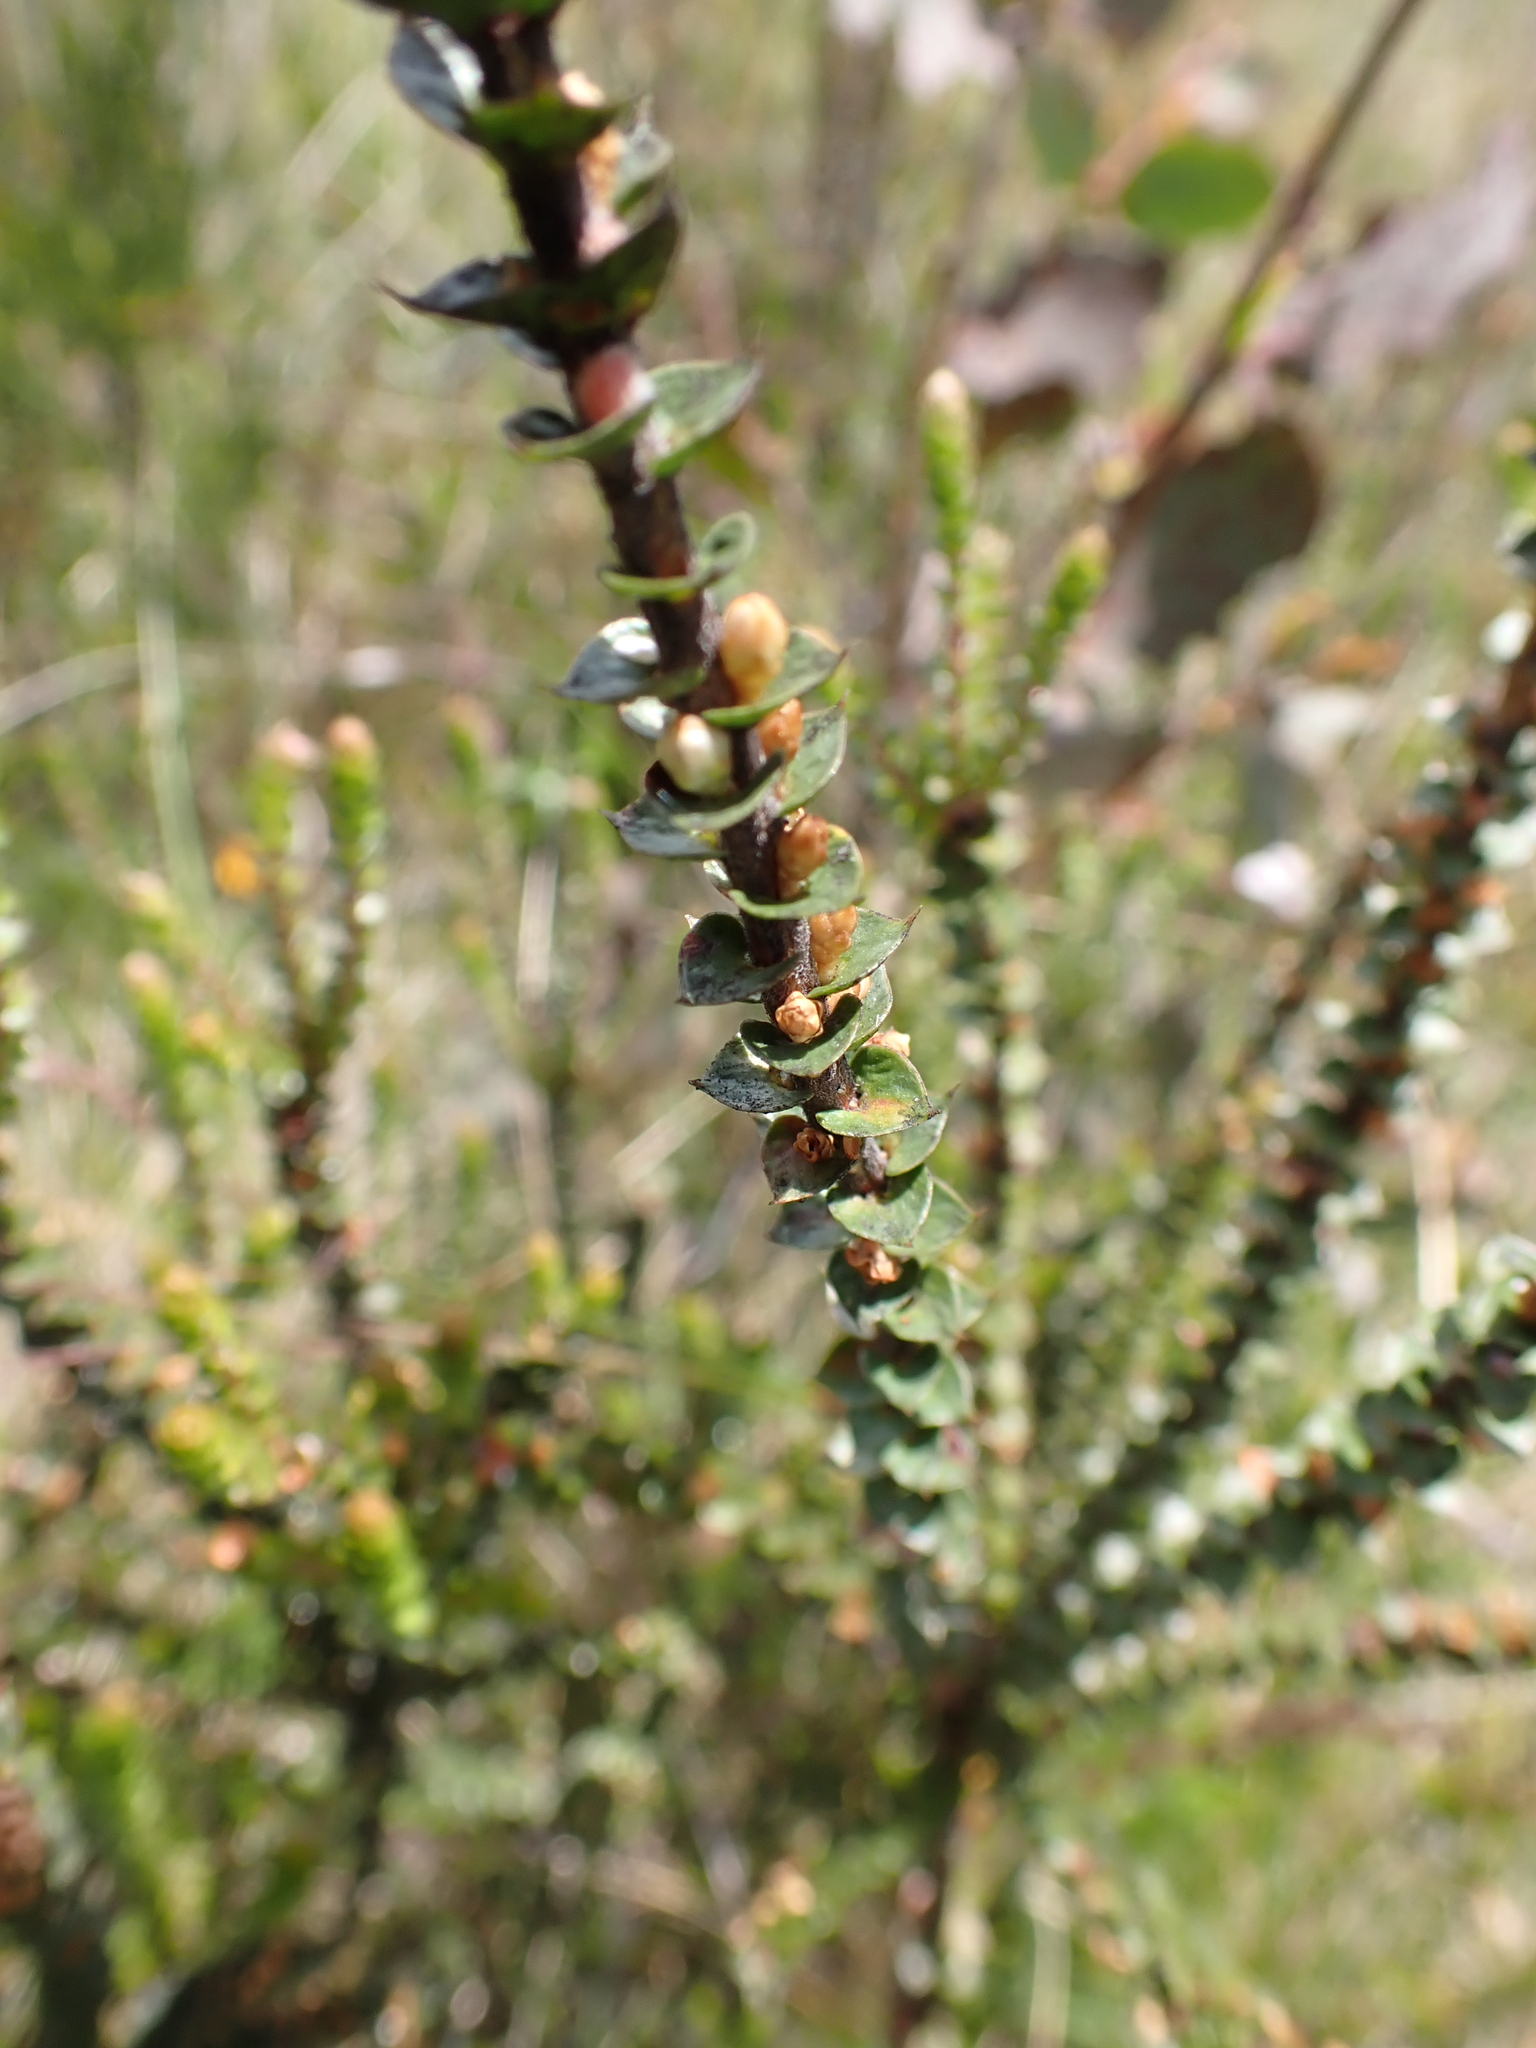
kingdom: Plantae
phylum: Tracheophyta
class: Magnoliopsida
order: Ericales
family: Ericaceae
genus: Epacris
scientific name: Epacris gunnii
